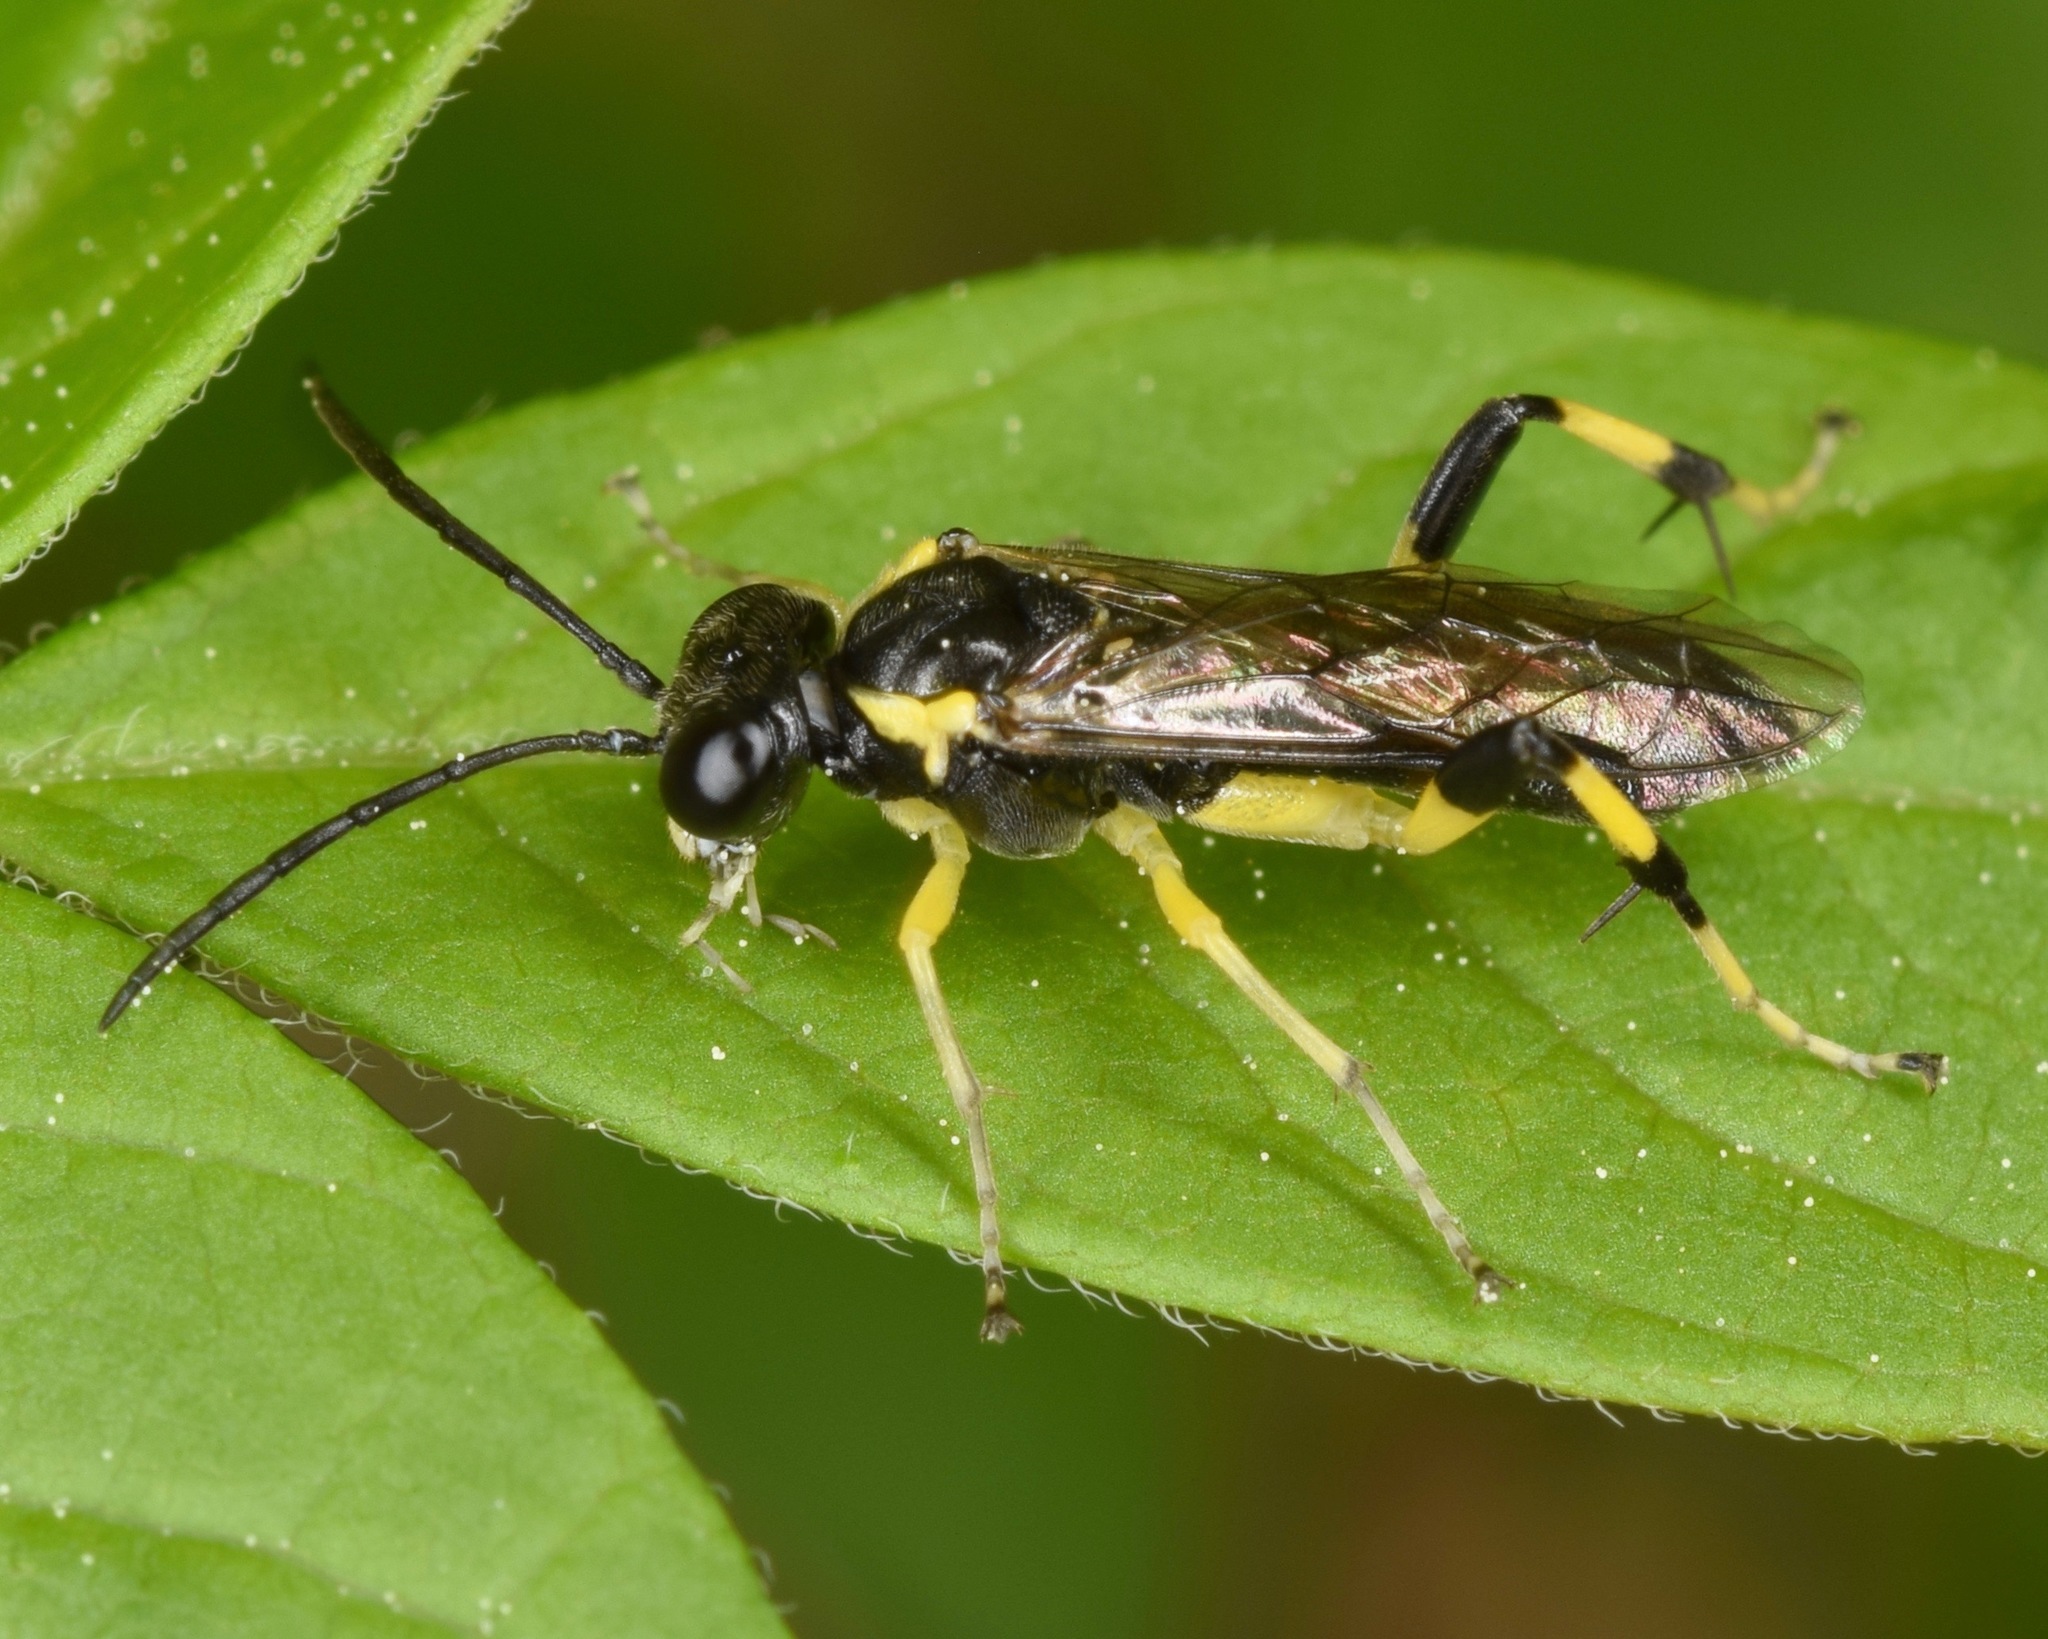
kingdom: Animalia
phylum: Arthropoda
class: Insecta
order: Hymenoptera
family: Tenthredinidae
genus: Macrophya
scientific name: Macrophya flavicoxae
